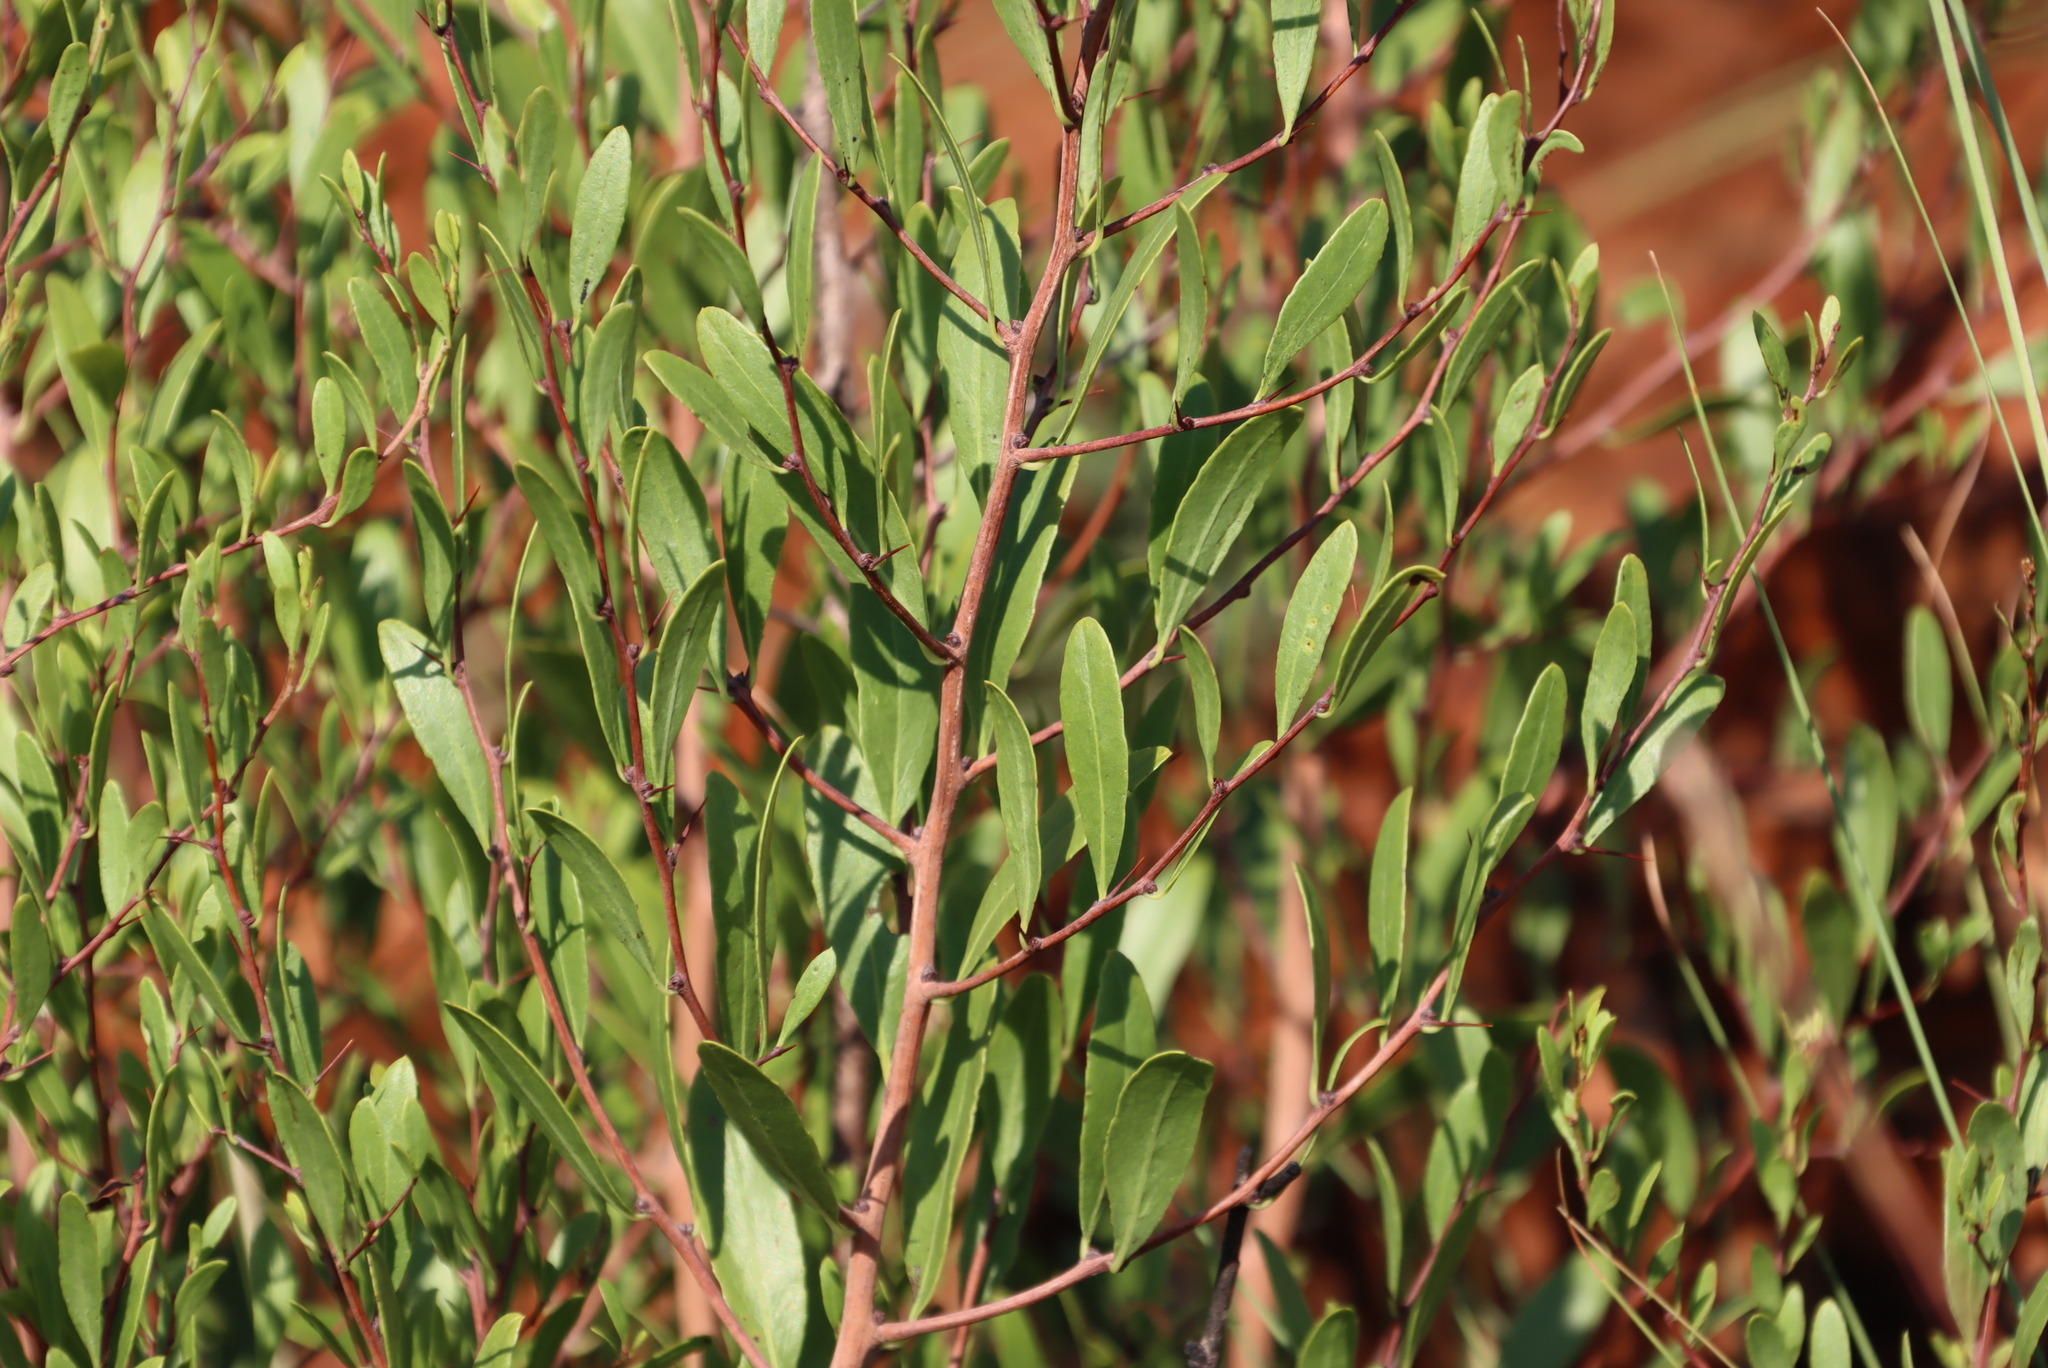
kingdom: Plantae
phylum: Tracheophyta
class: Magnoliopsida
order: Celastrales
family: Celastraceae
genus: Gymnosporia
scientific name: Gymnosporia polyacantha
